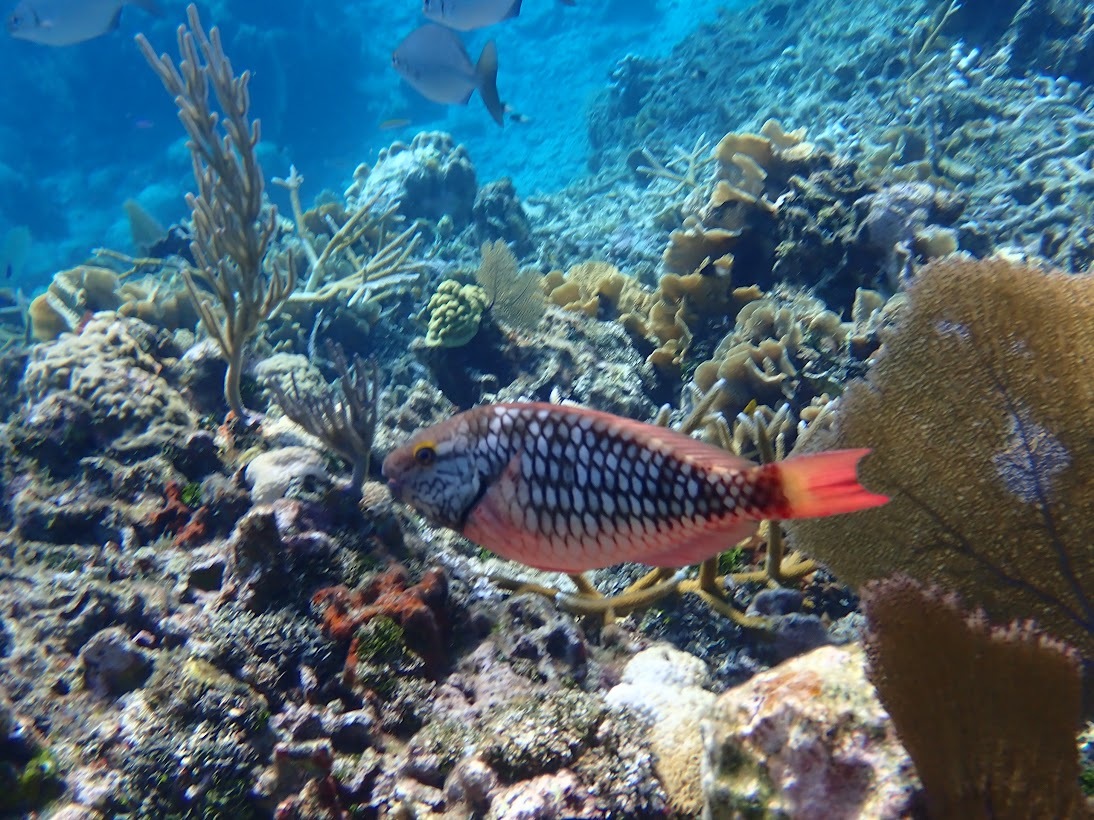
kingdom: Animalia
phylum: Chordata
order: Perciformes
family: Scaridae
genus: Sparisoma
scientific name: Sparisoma viride
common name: Stoplight parrotfish
